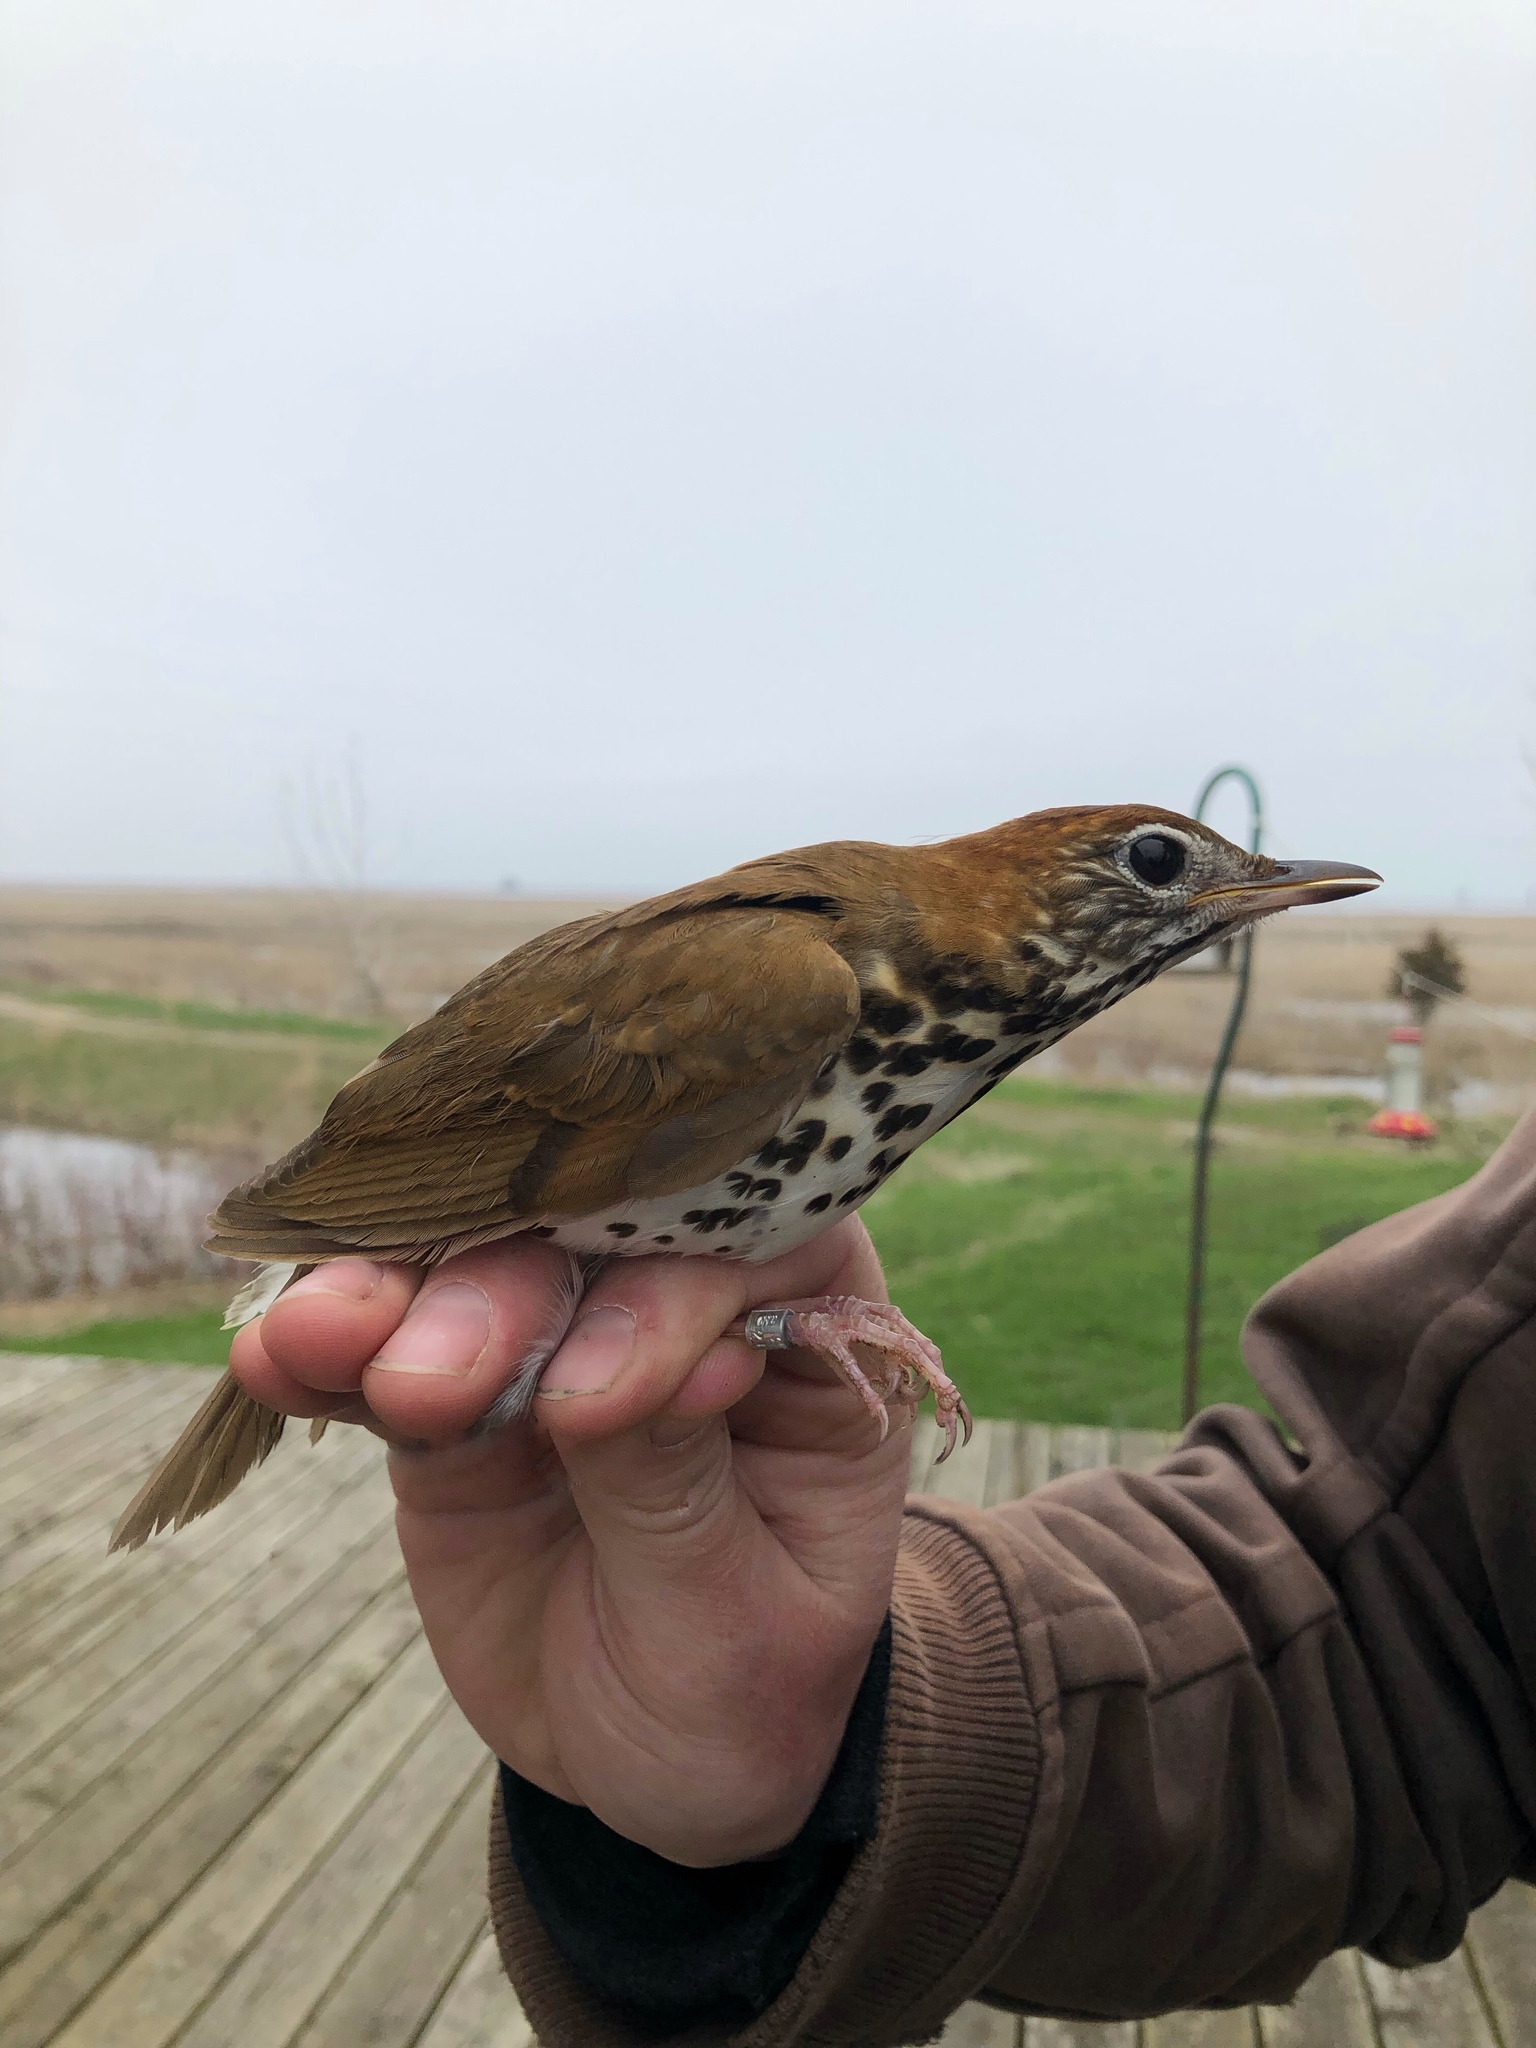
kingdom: Animalia
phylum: Chordata
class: Aves
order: Passeriformes
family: Turdidae
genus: Hylocichla
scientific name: Hylocichla mustelina
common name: Wood thrush
